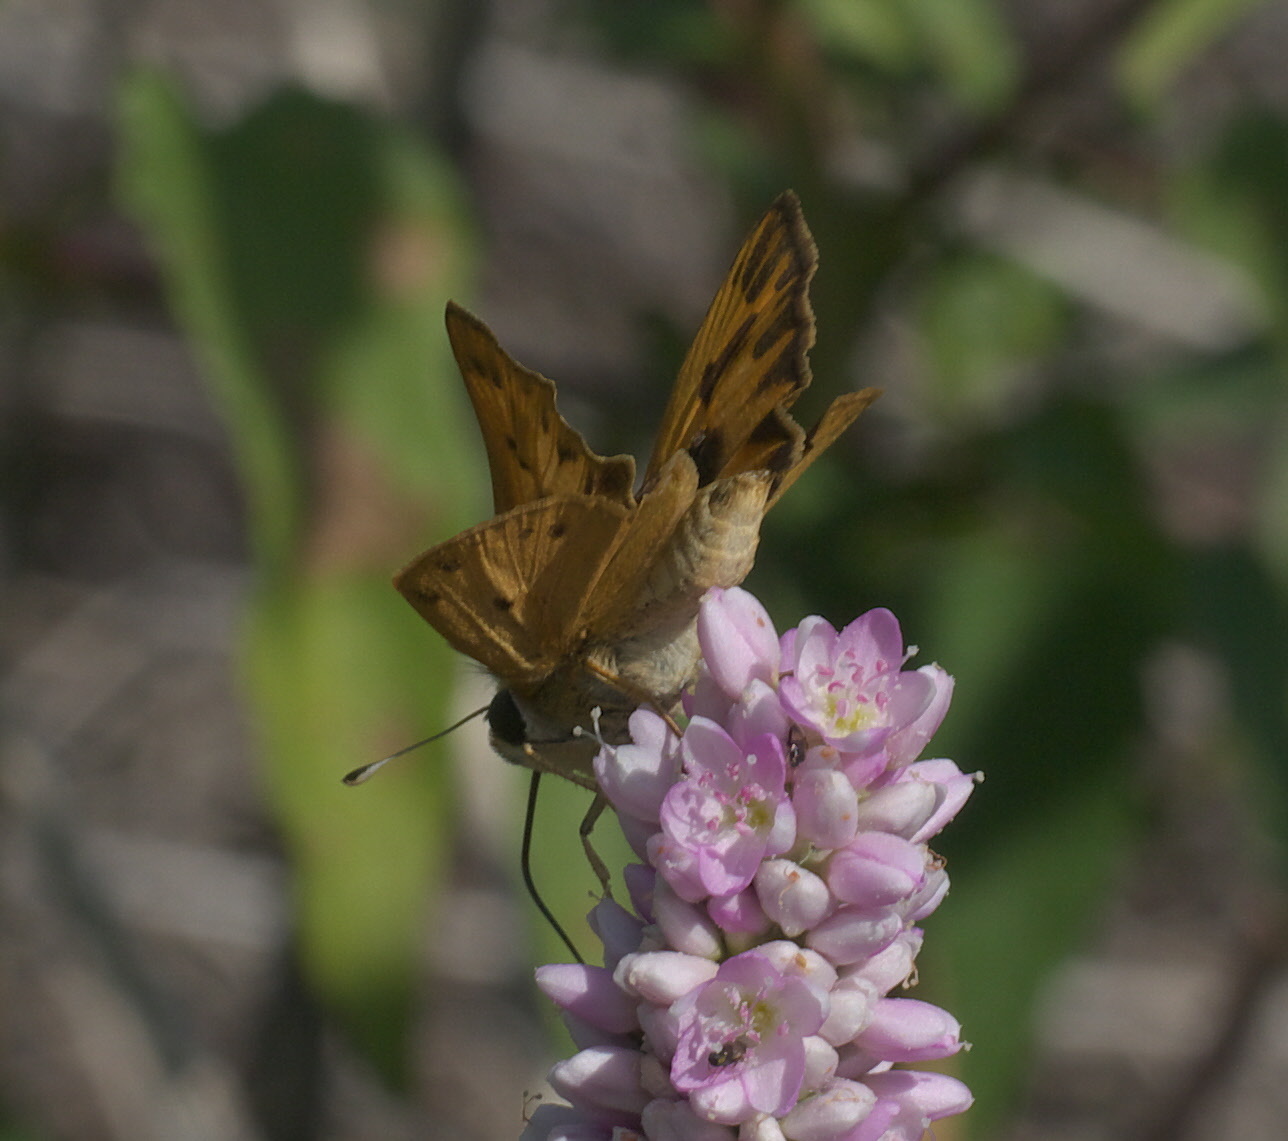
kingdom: Animalia
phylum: Arthropoda
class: Insecta
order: Lepidoptera
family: Hesperiidae
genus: Hylephila
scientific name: Hylephila phyleus
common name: Fiery skipper
